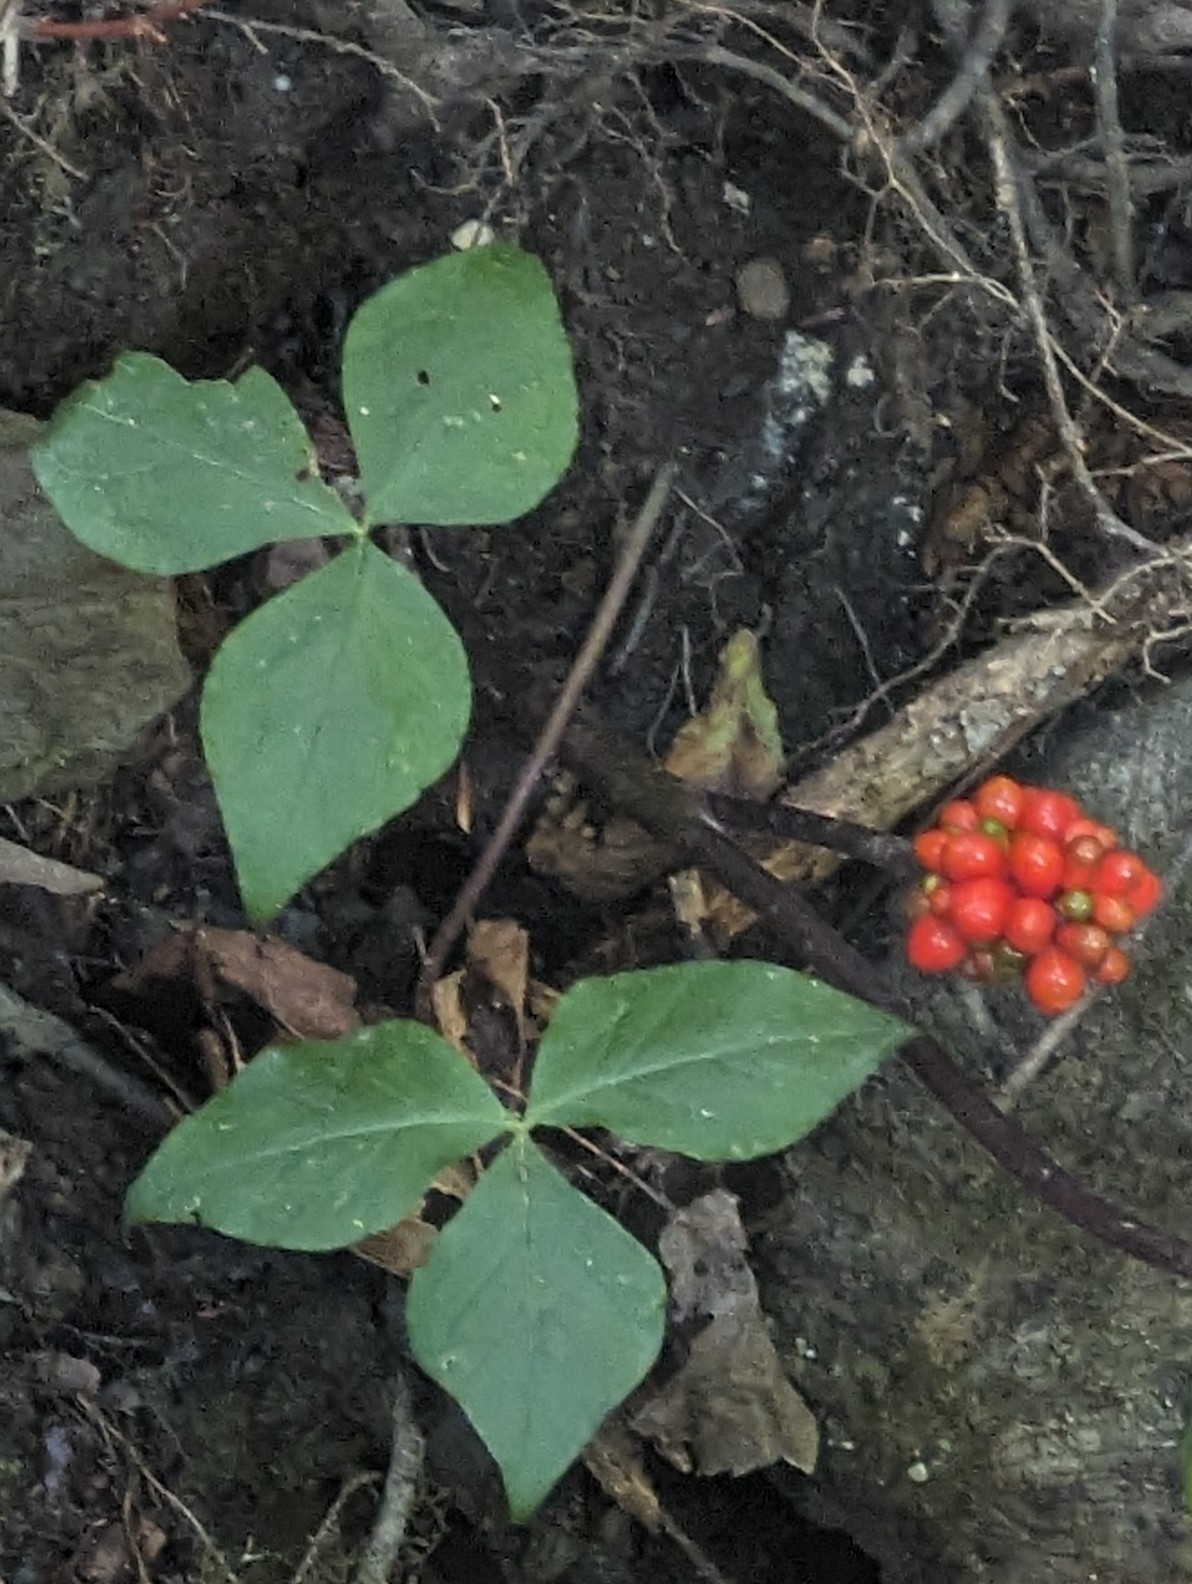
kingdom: Plantae
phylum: Tracheophyta
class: Liliopsida
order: Alismatales
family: Araceae
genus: Arisaema
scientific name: Arisaema triphyllum
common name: Jack-in-the-pulpit
